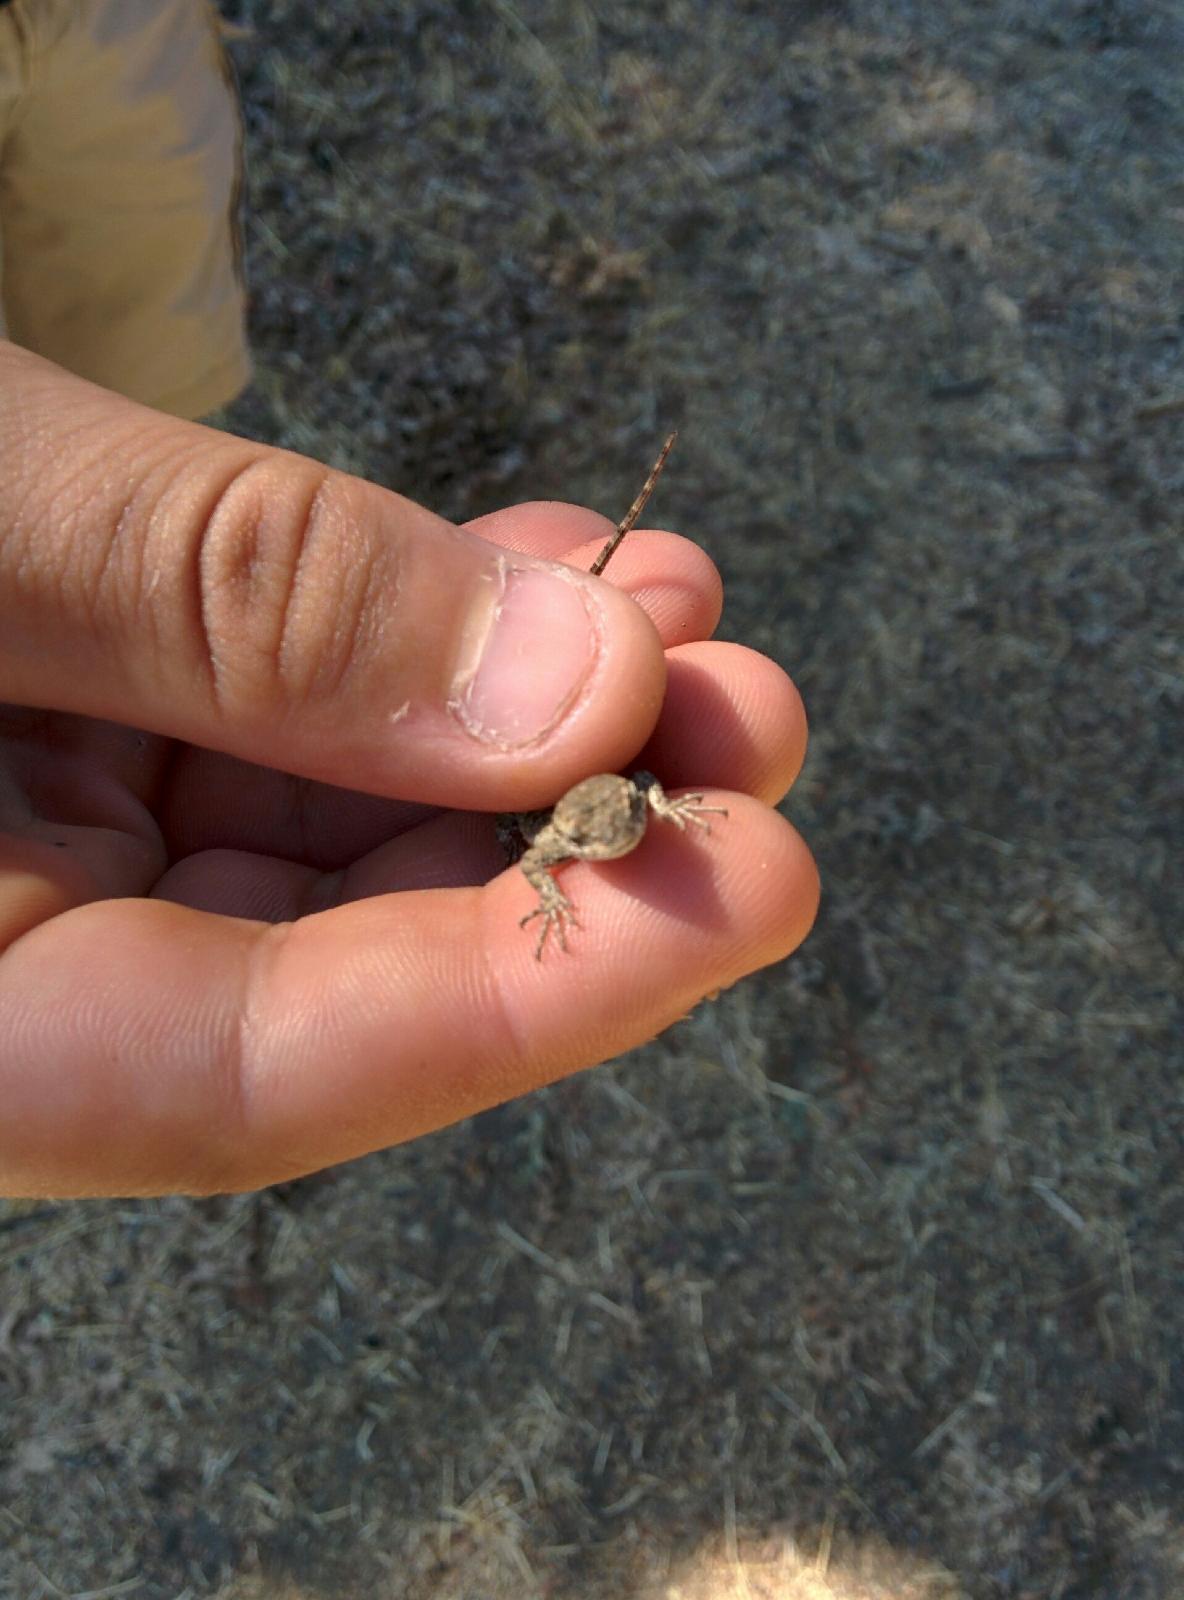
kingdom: Animalia
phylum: Chordata
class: Squamata
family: Phrynosomatidae
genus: Sceloporus
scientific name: Sceloporus occidentalis
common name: Western fence lizard
